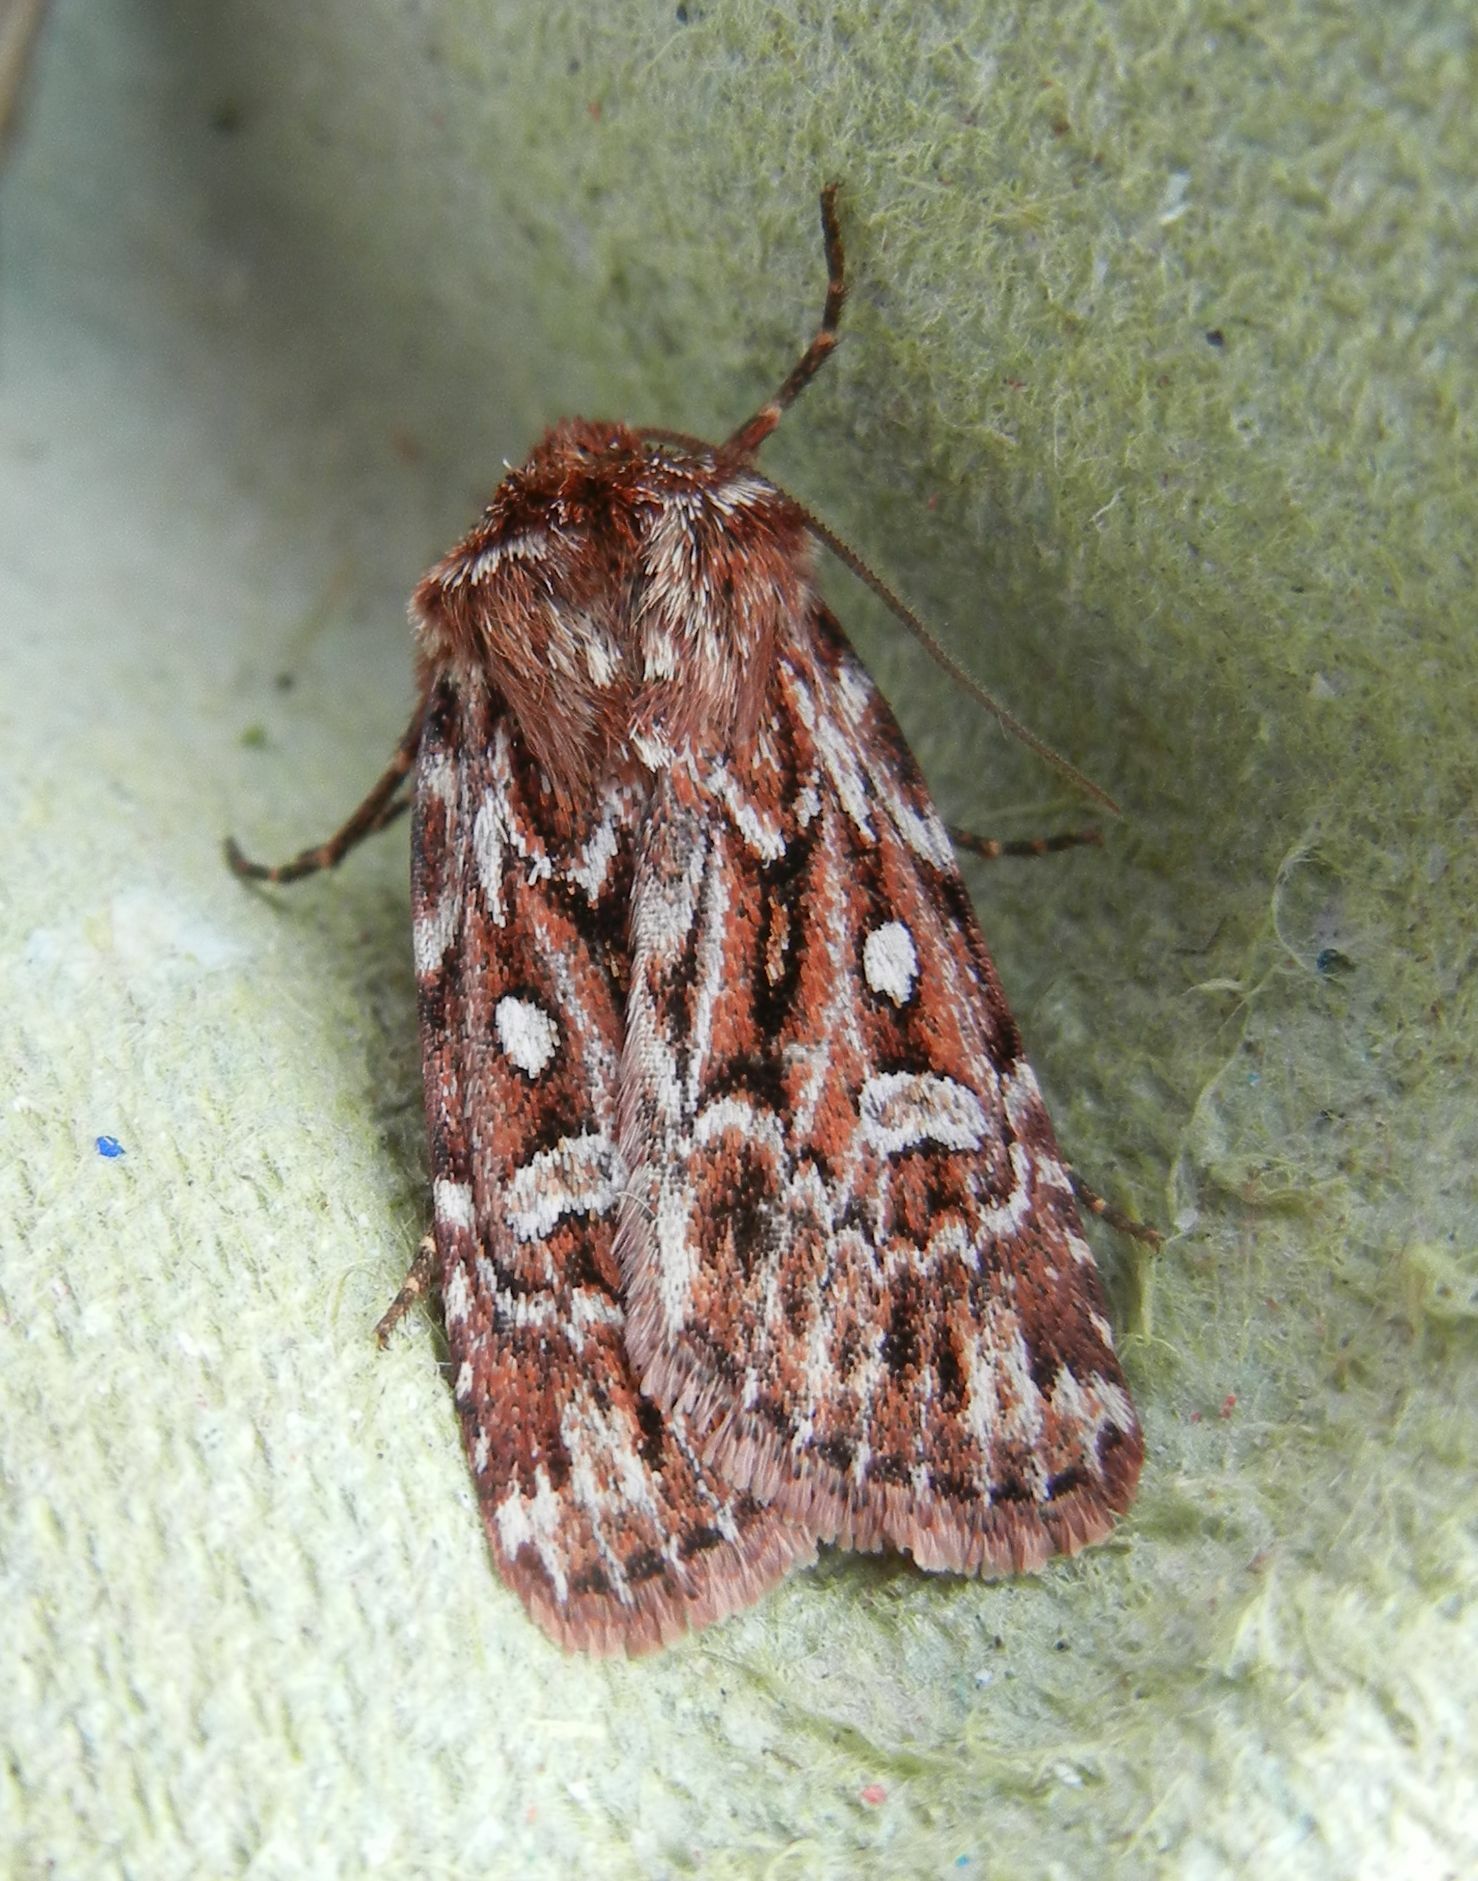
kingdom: Animalia
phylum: Arthropoda
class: Insecta
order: Lepidoptera
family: Noctuidae
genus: Lycophotia
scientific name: Lycophotia porphyrea
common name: True lover's knot
